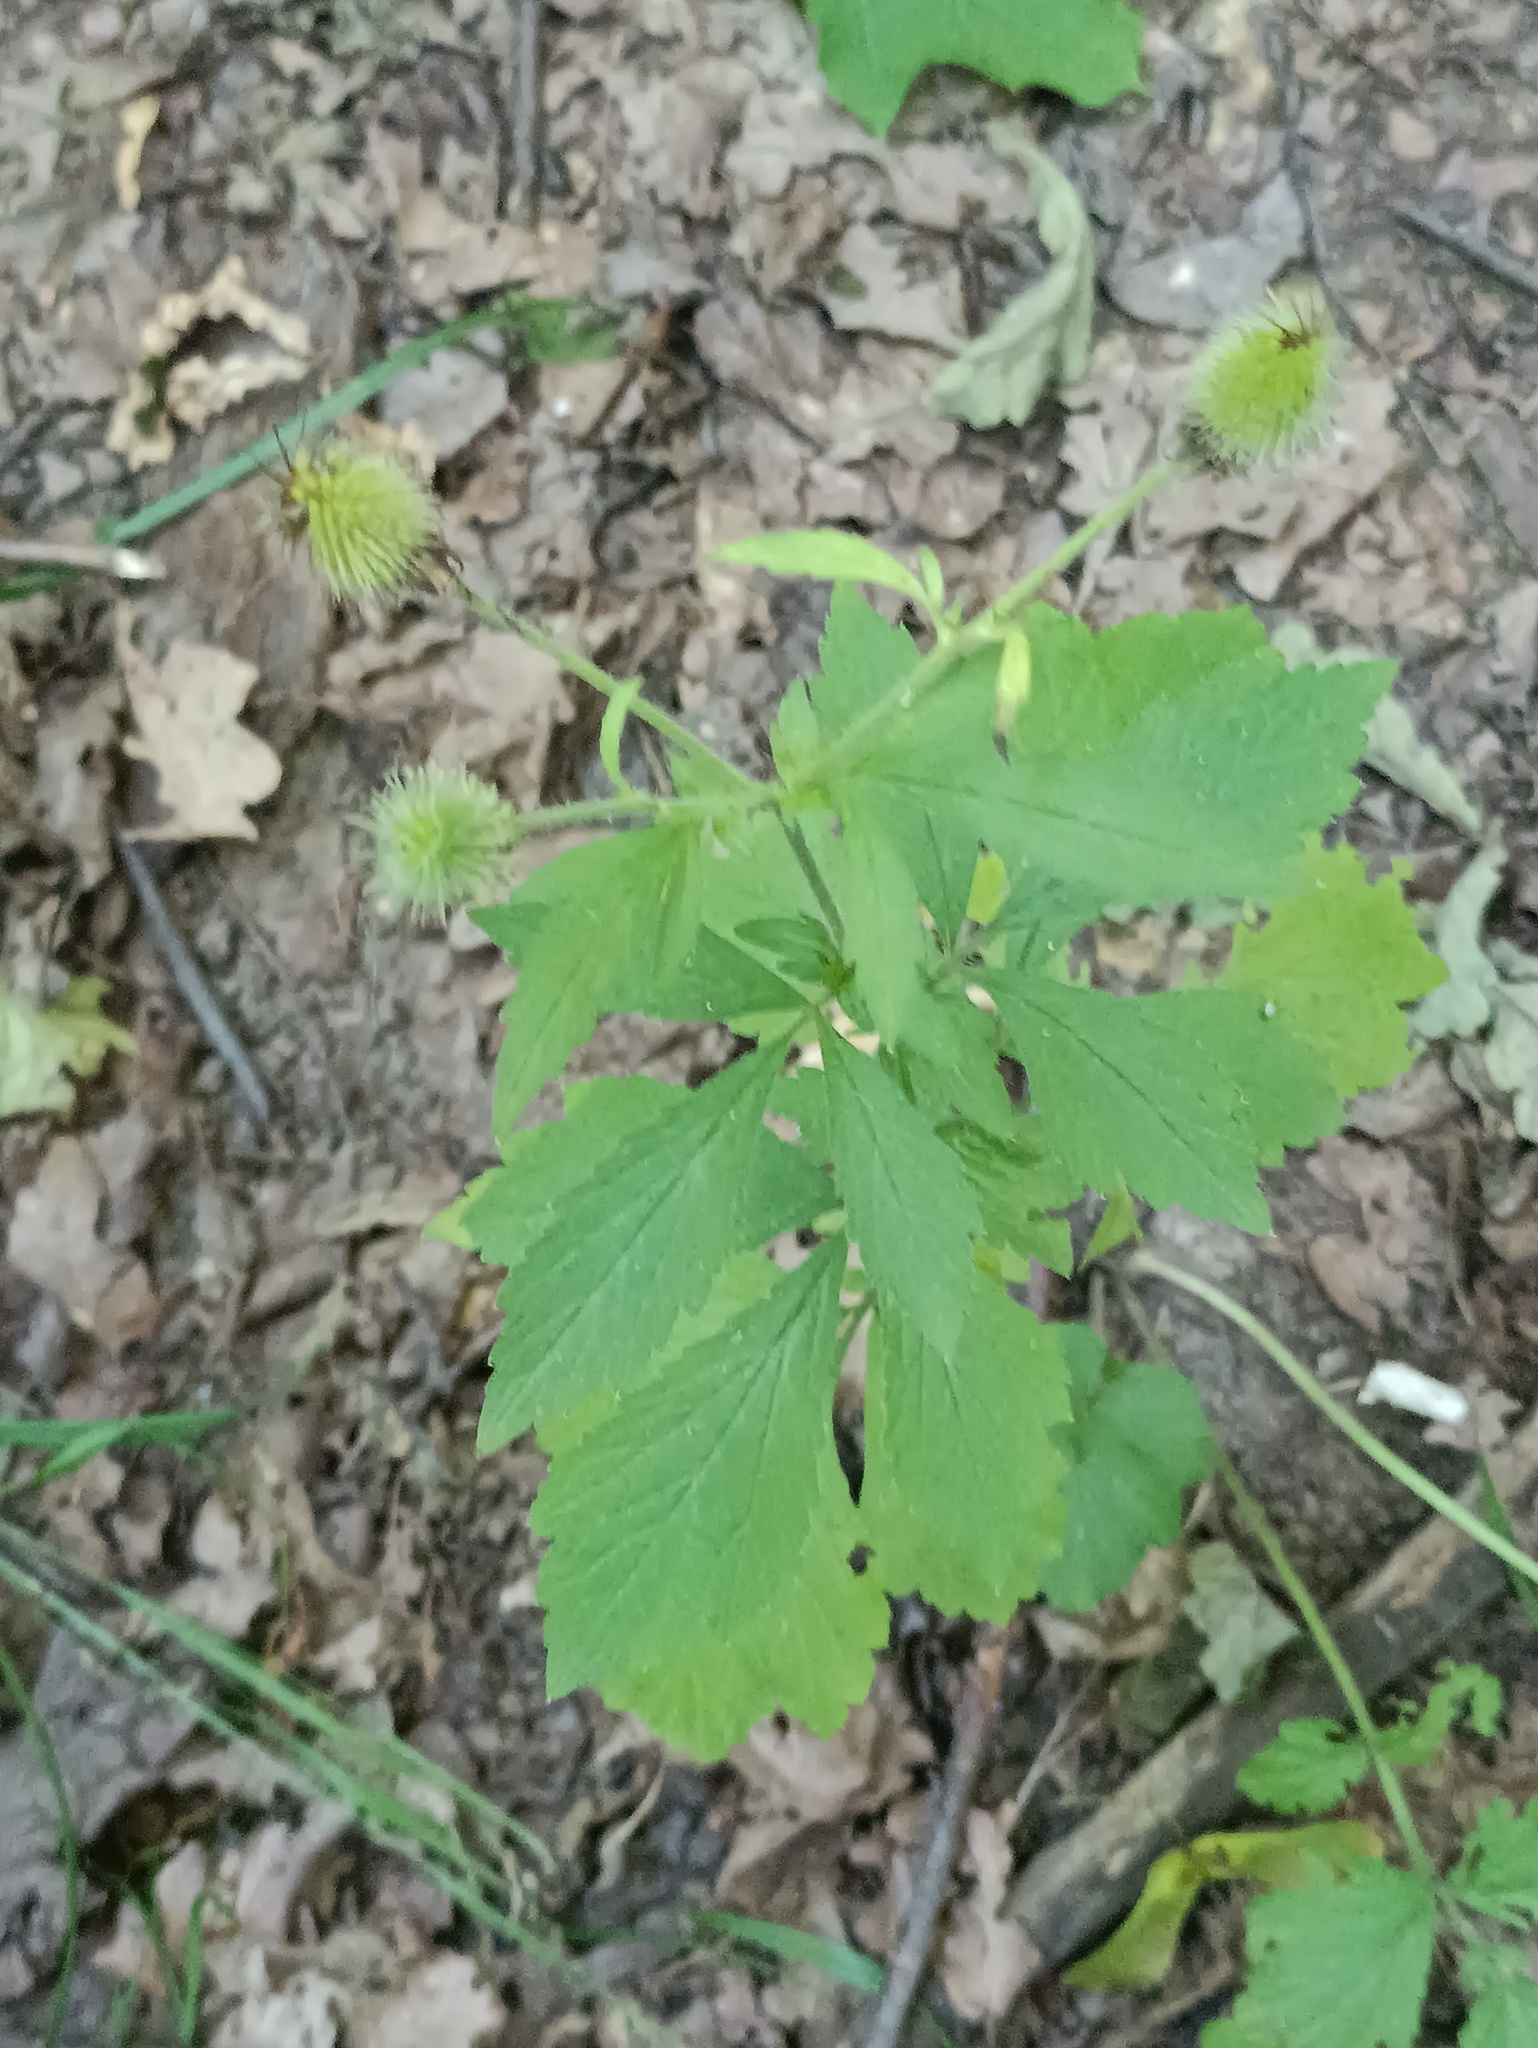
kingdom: Plantae
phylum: Tracheophyta
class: Magnoliopsida
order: Rosales
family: Rosaceae
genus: Geum
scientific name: Geum aleppicum
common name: Yellow avens
